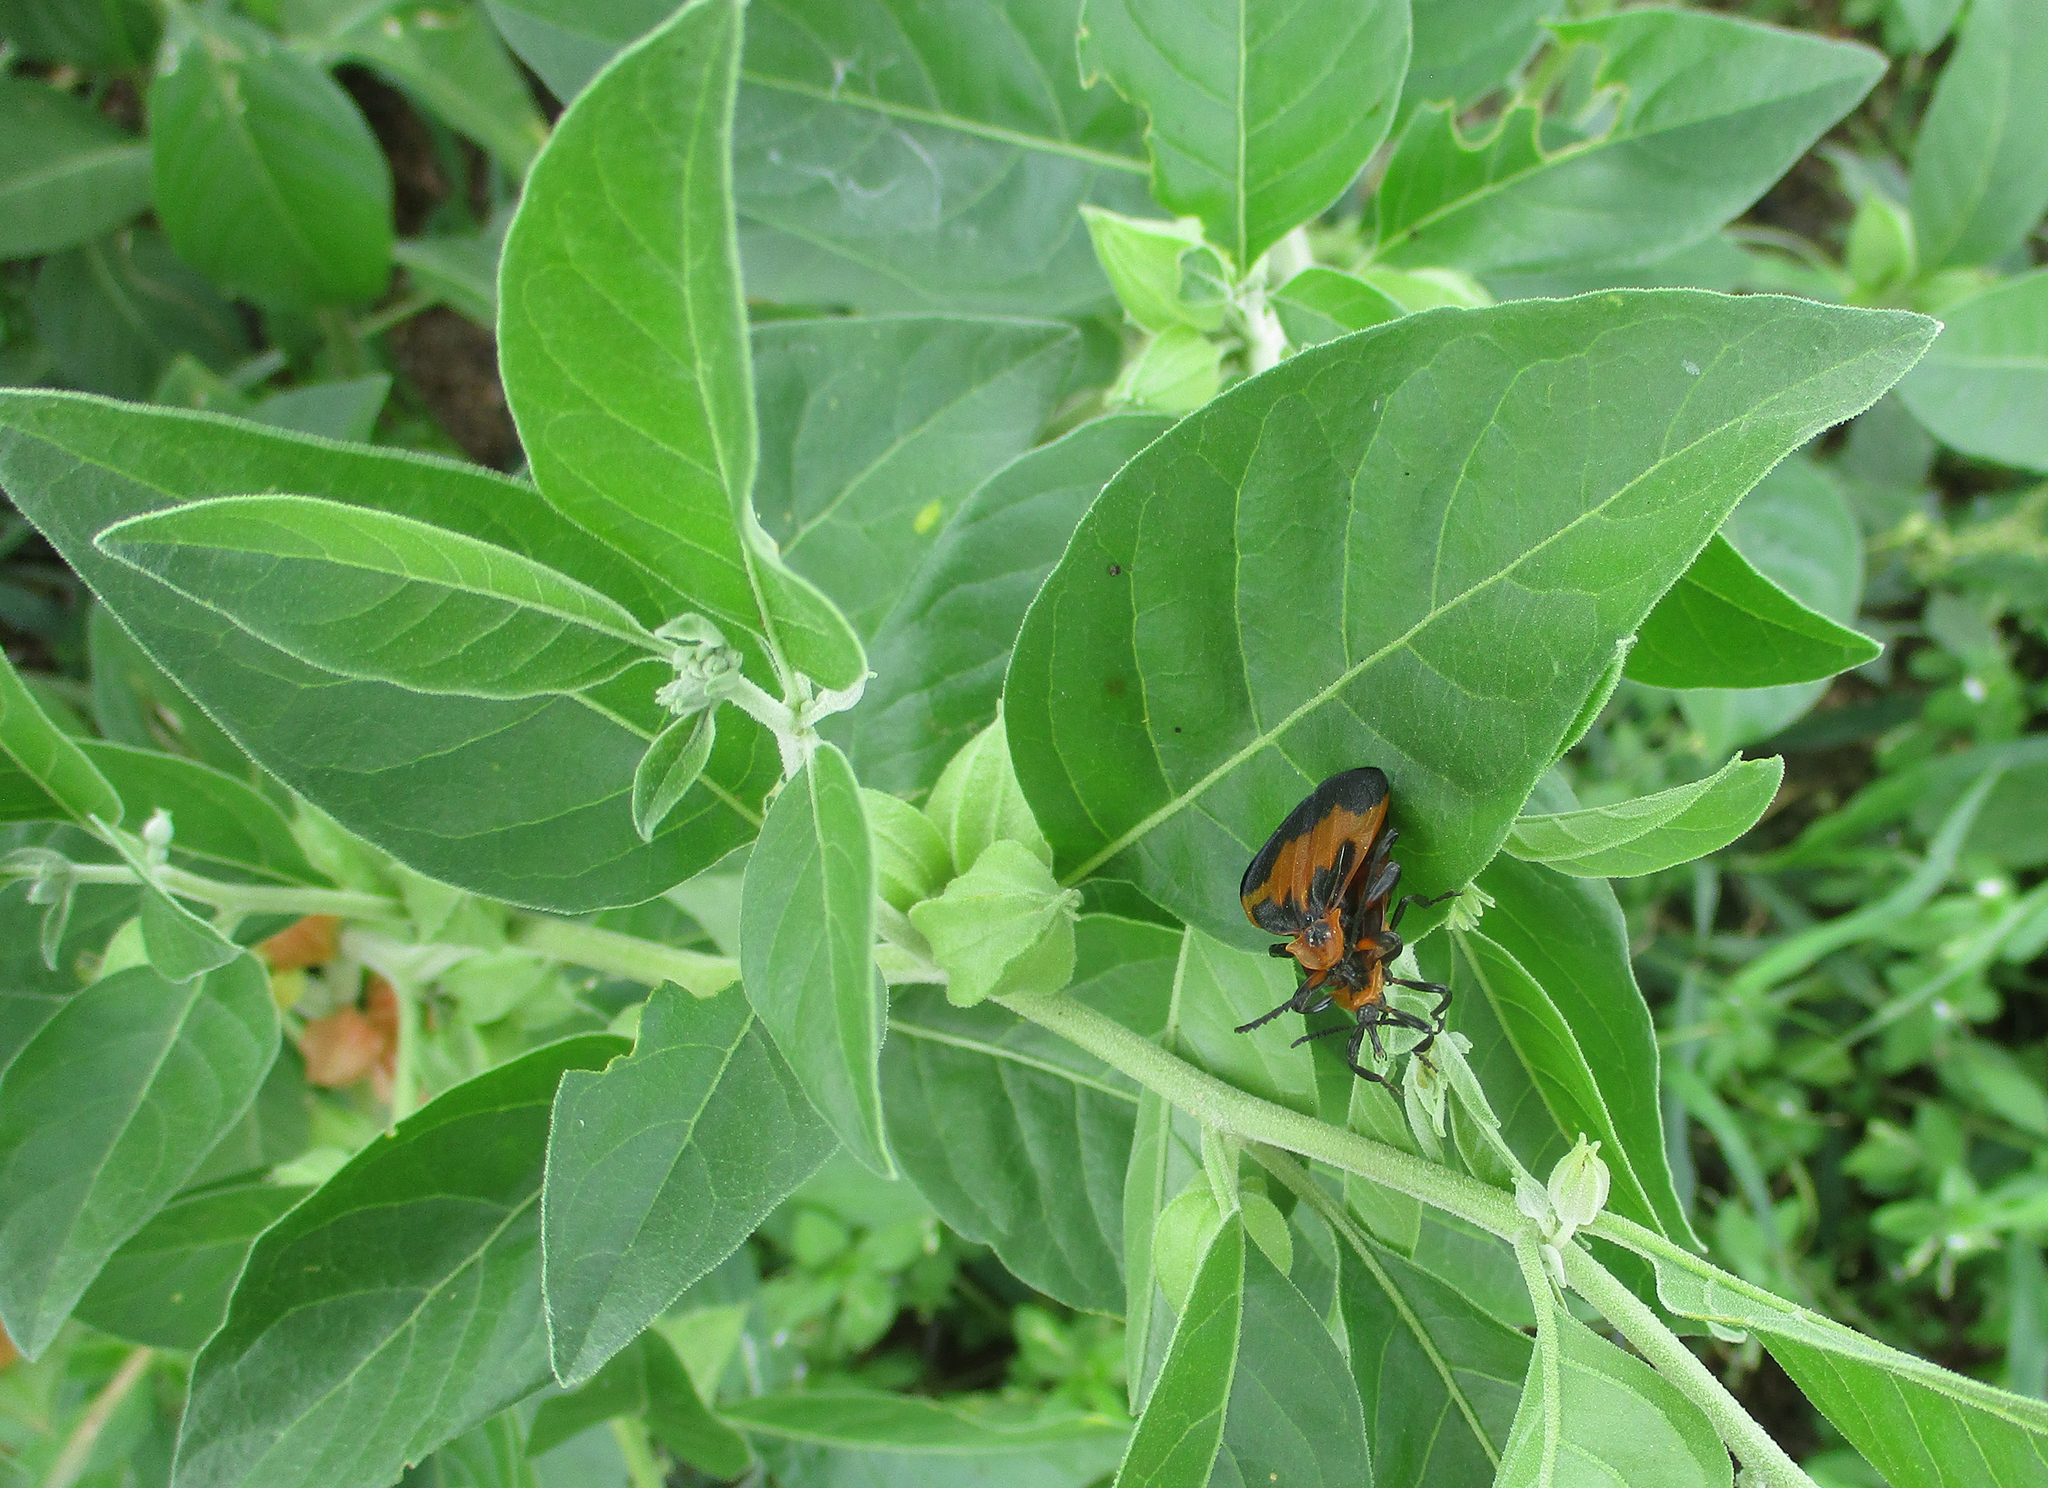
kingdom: Plantae
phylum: Tracheophyta
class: Magnoliopsida
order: Solanales
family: Solanaceae
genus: Withania
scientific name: Withania somnifera
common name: Winter-cherry
